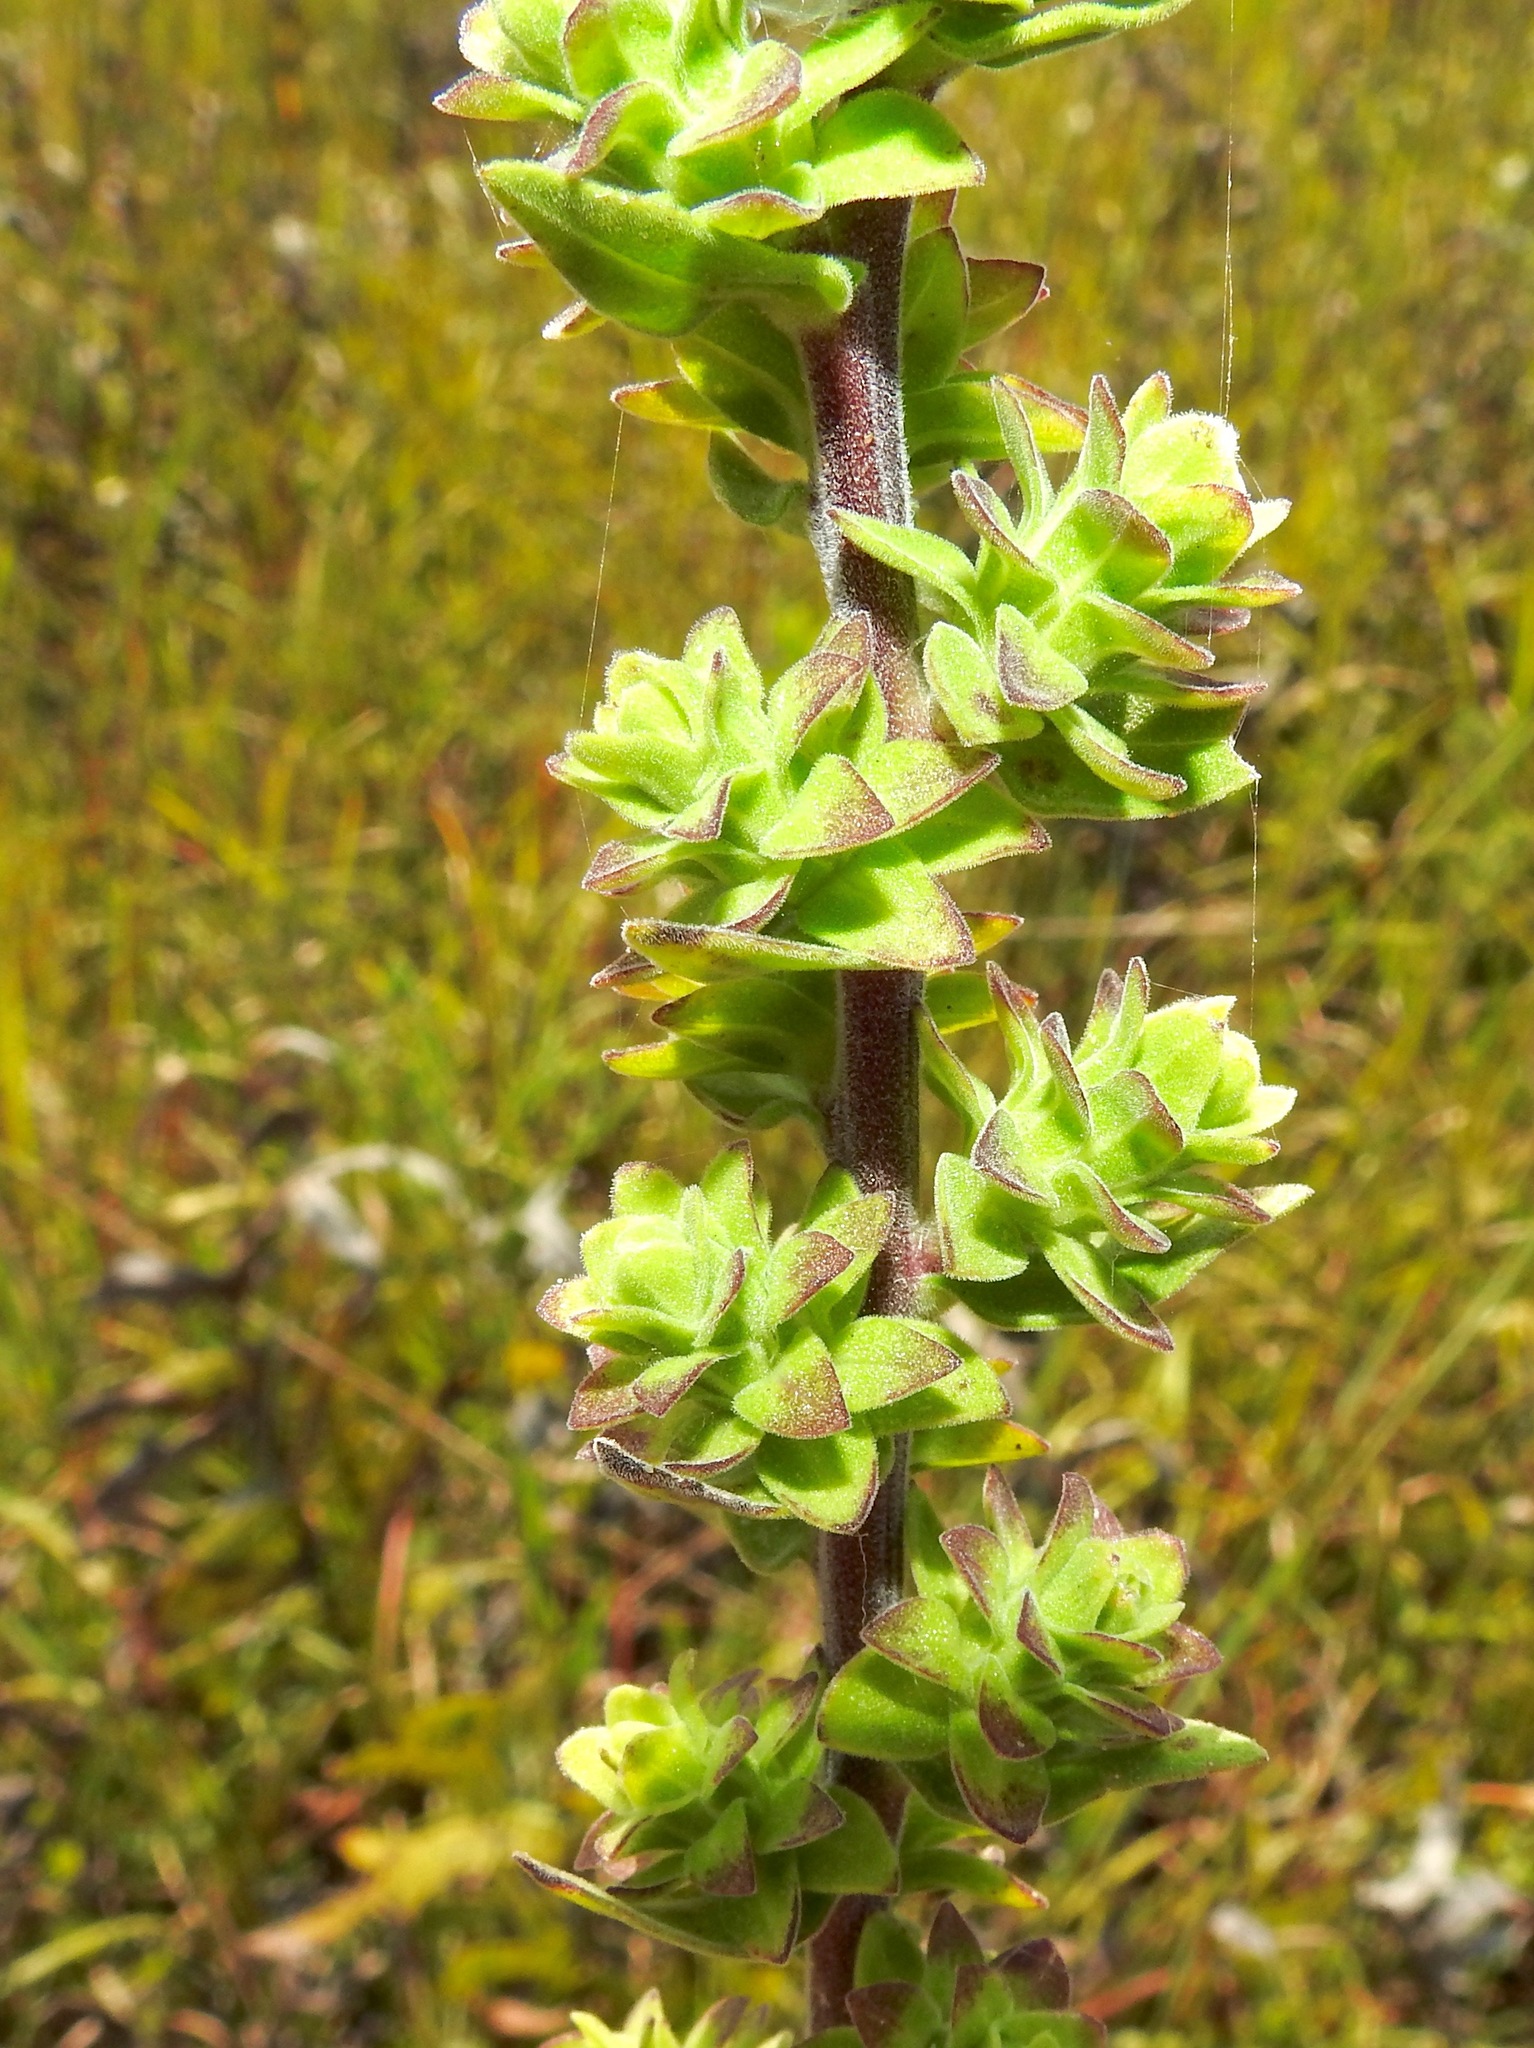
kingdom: Plantae
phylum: Tracheophyta
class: Magnoliopsida
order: Asterales
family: Asteraceae
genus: Liatris
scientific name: Liatris squarrulosa
